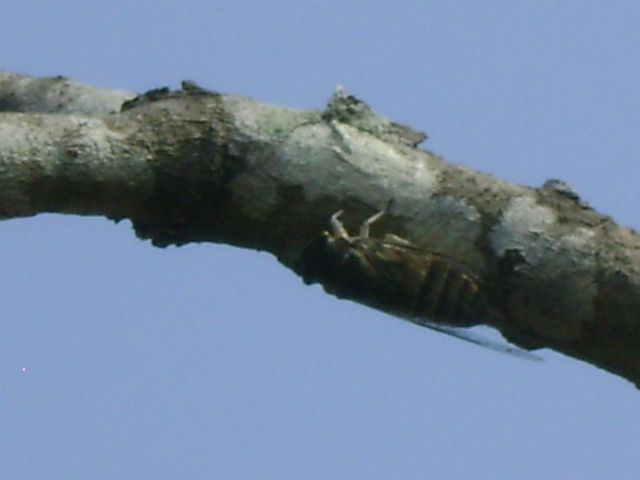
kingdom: Animalia
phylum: Arthropoda
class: Insecta
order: Hemiptera
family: Cicadidae
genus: Quesada
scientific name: Quesada gigas
